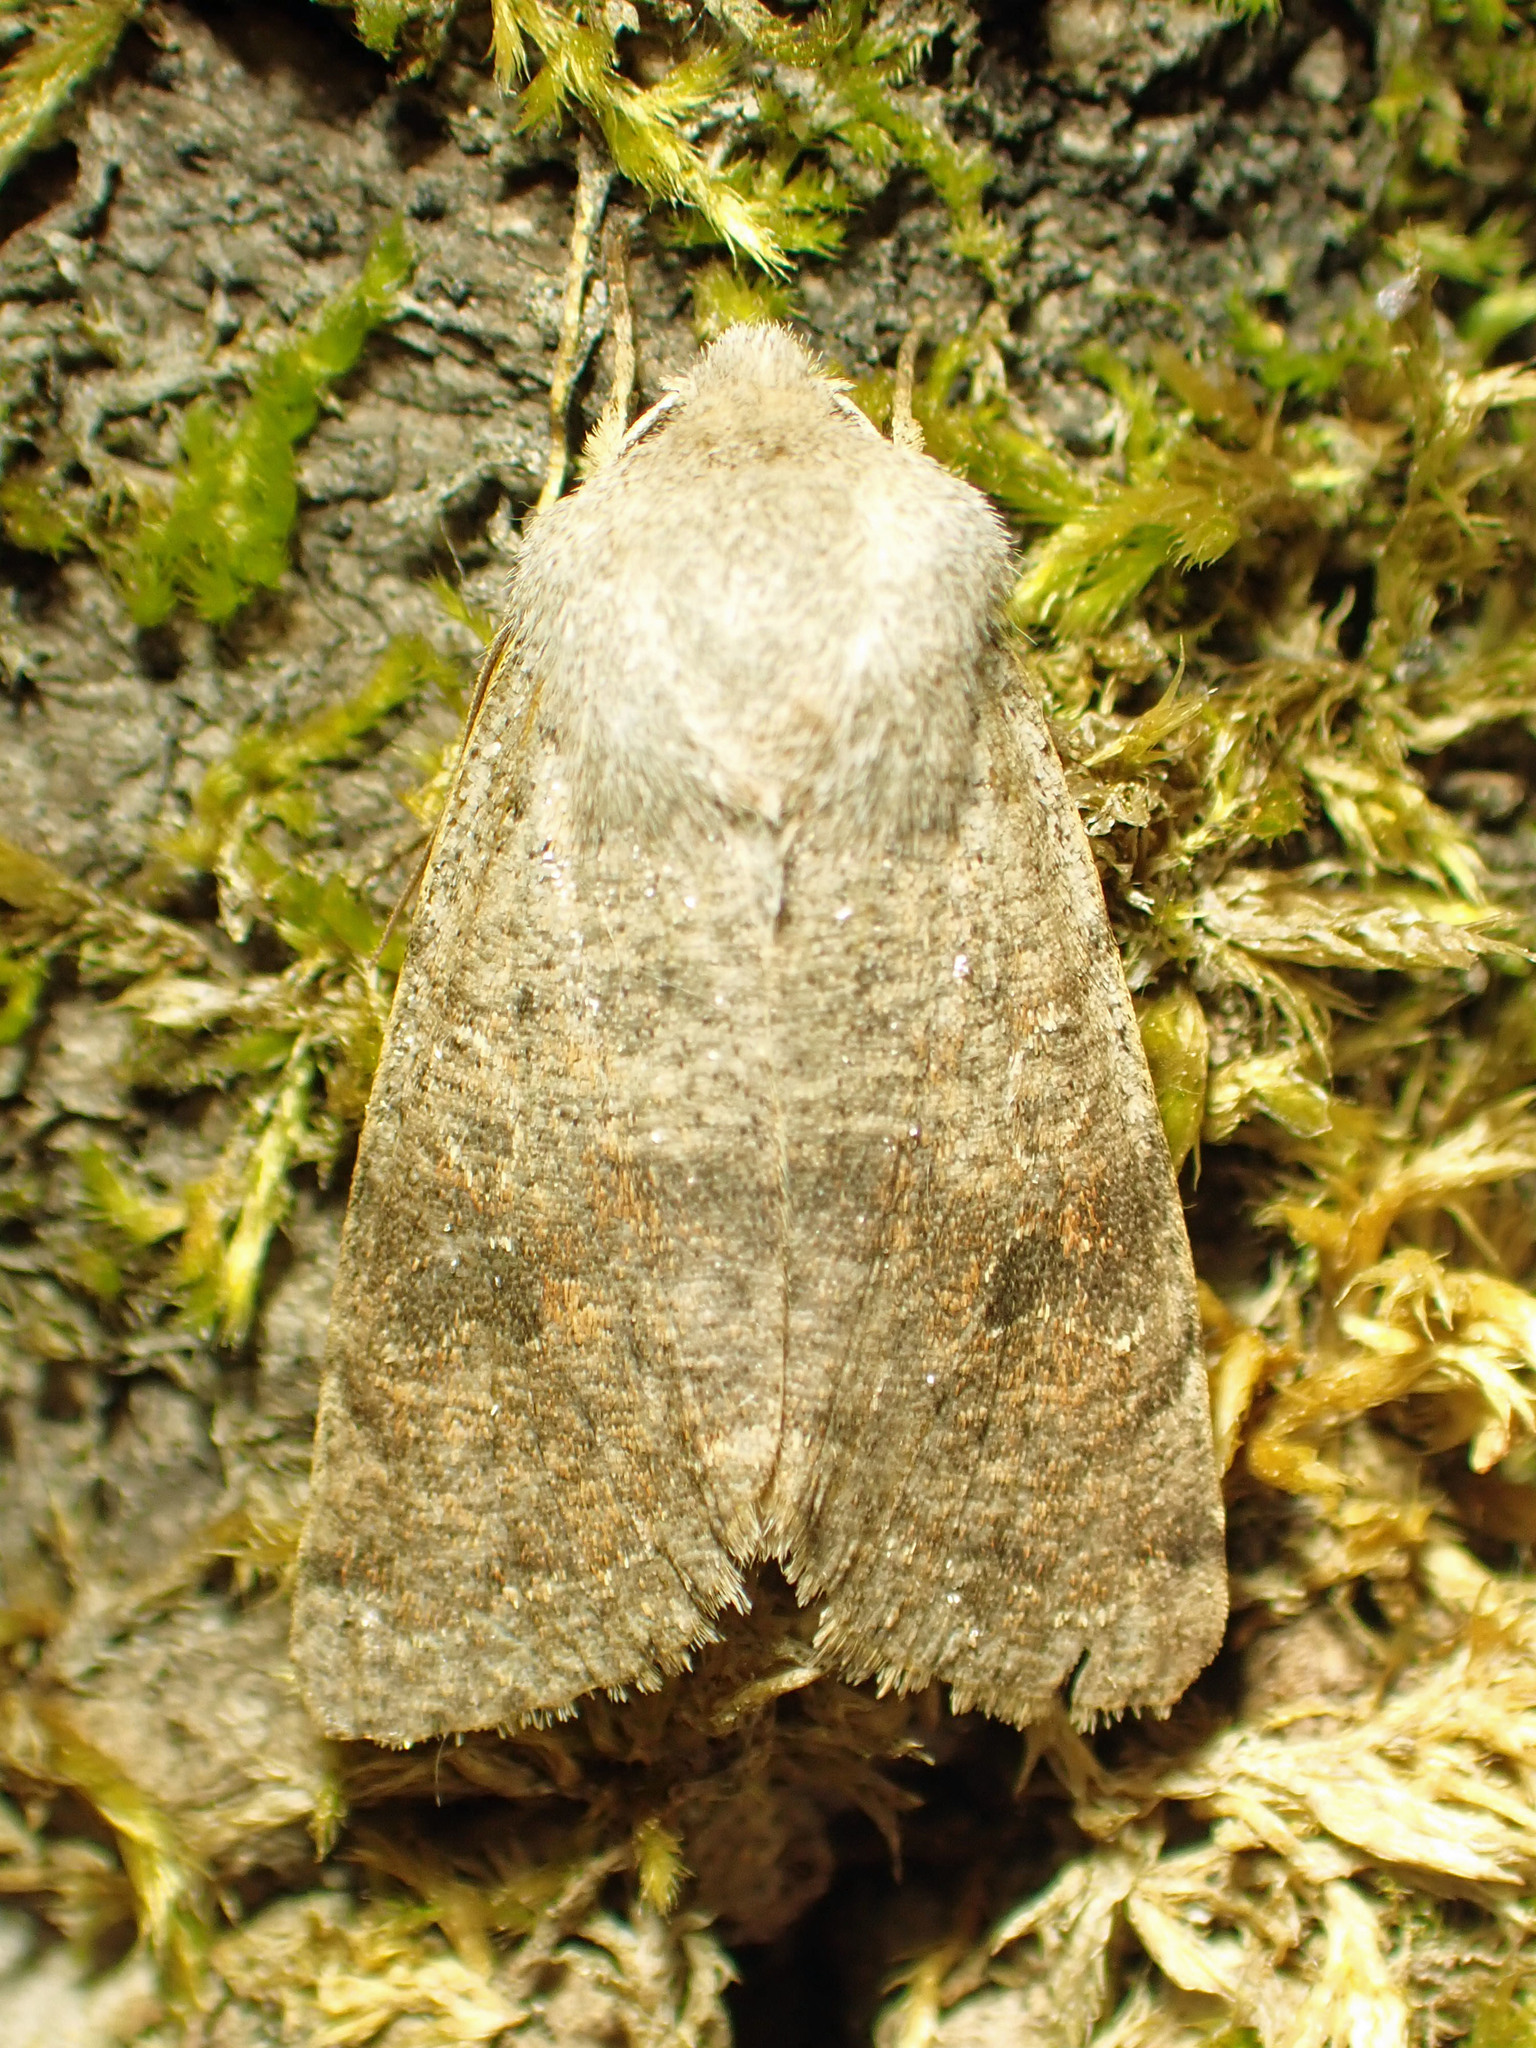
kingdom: Animalia
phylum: Arthropoda
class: Insecta
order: Lepidoptera
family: Noctuidae
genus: Orthosia
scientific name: Orthosia hibisci
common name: Green fruitworm
